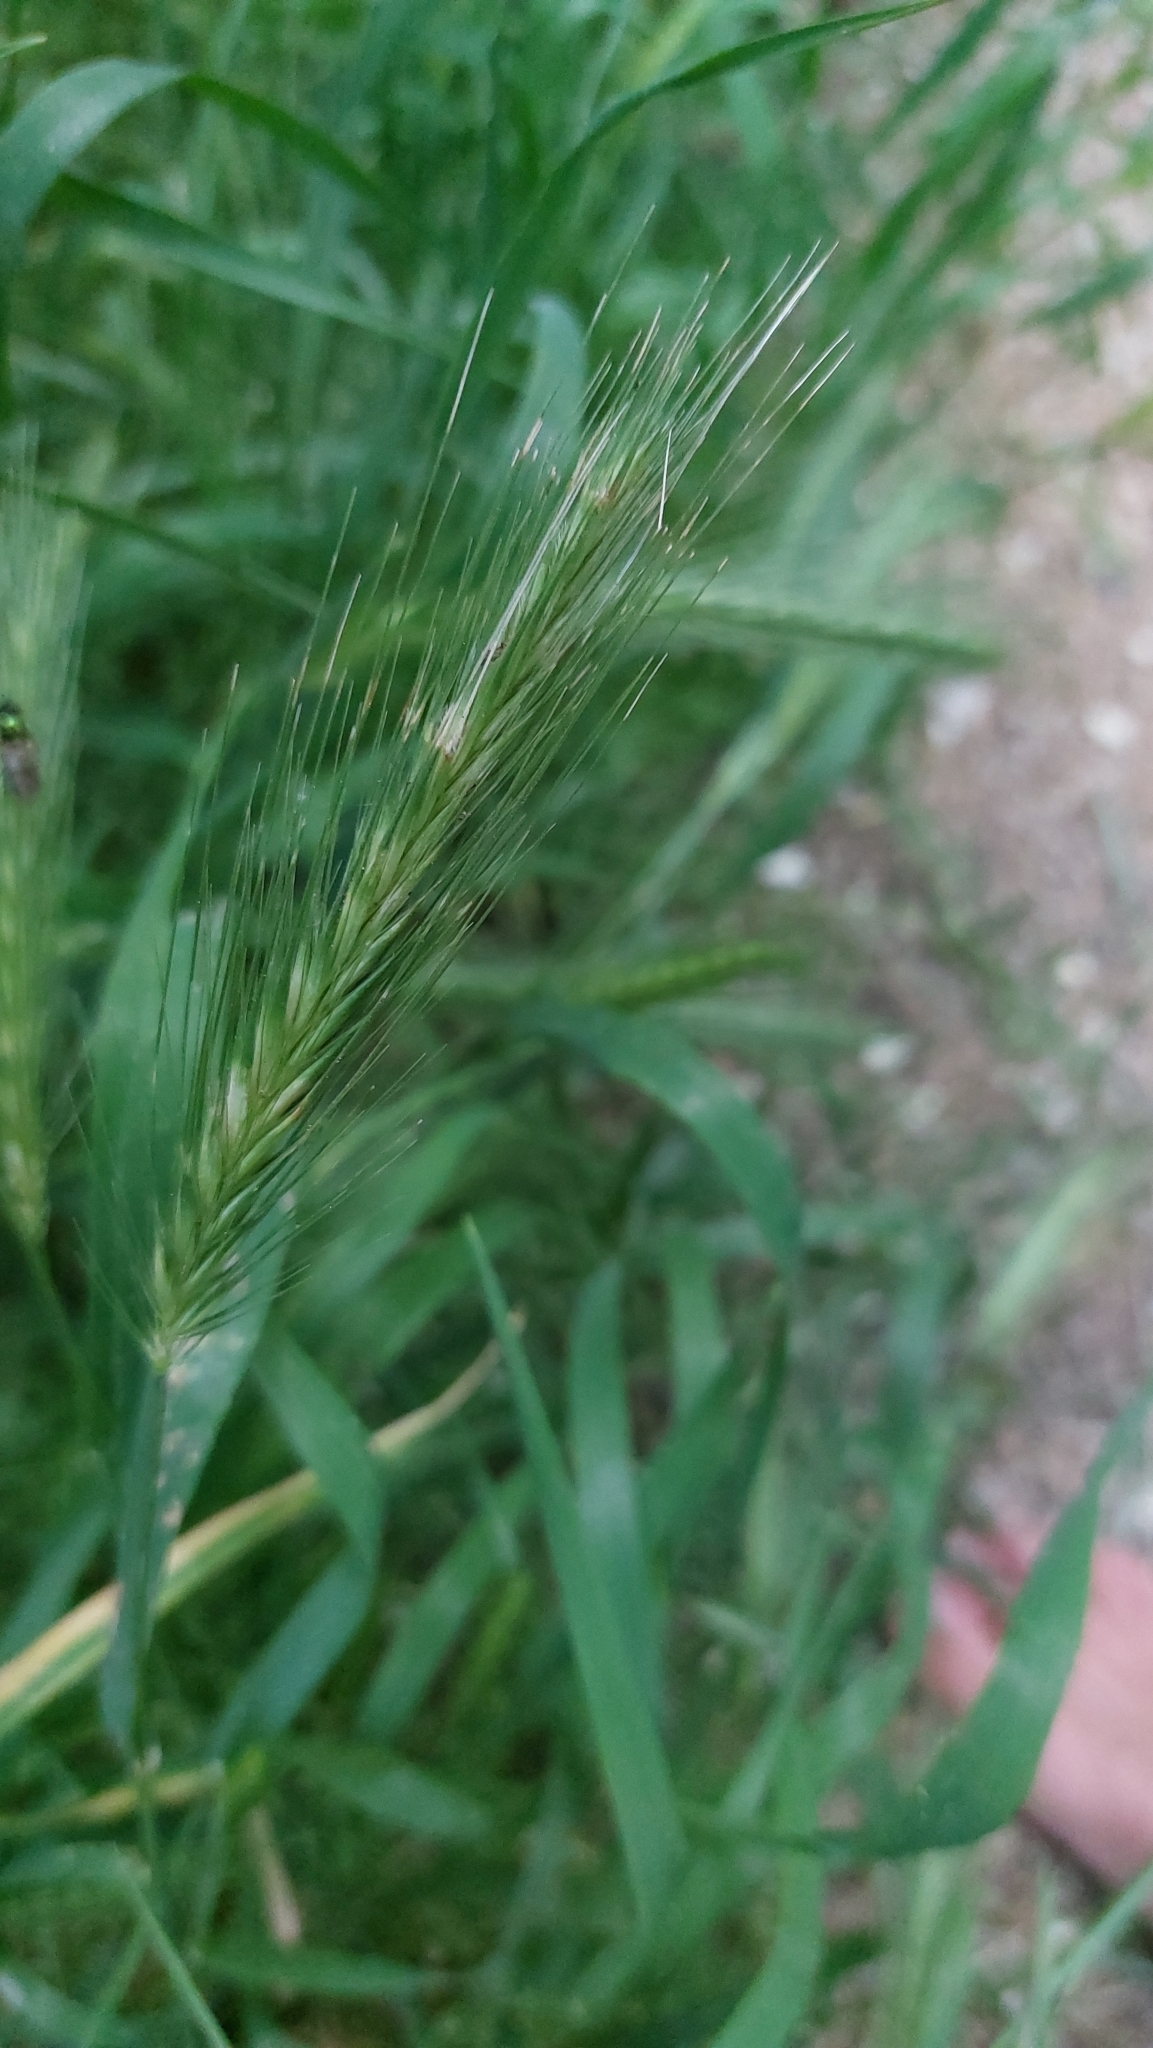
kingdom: Plantae
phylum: Tracheophyta
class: Liliopsida
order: Poales
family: Poaceae
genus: Hordeum
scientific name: Hordeum murinum
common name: Wall barley
